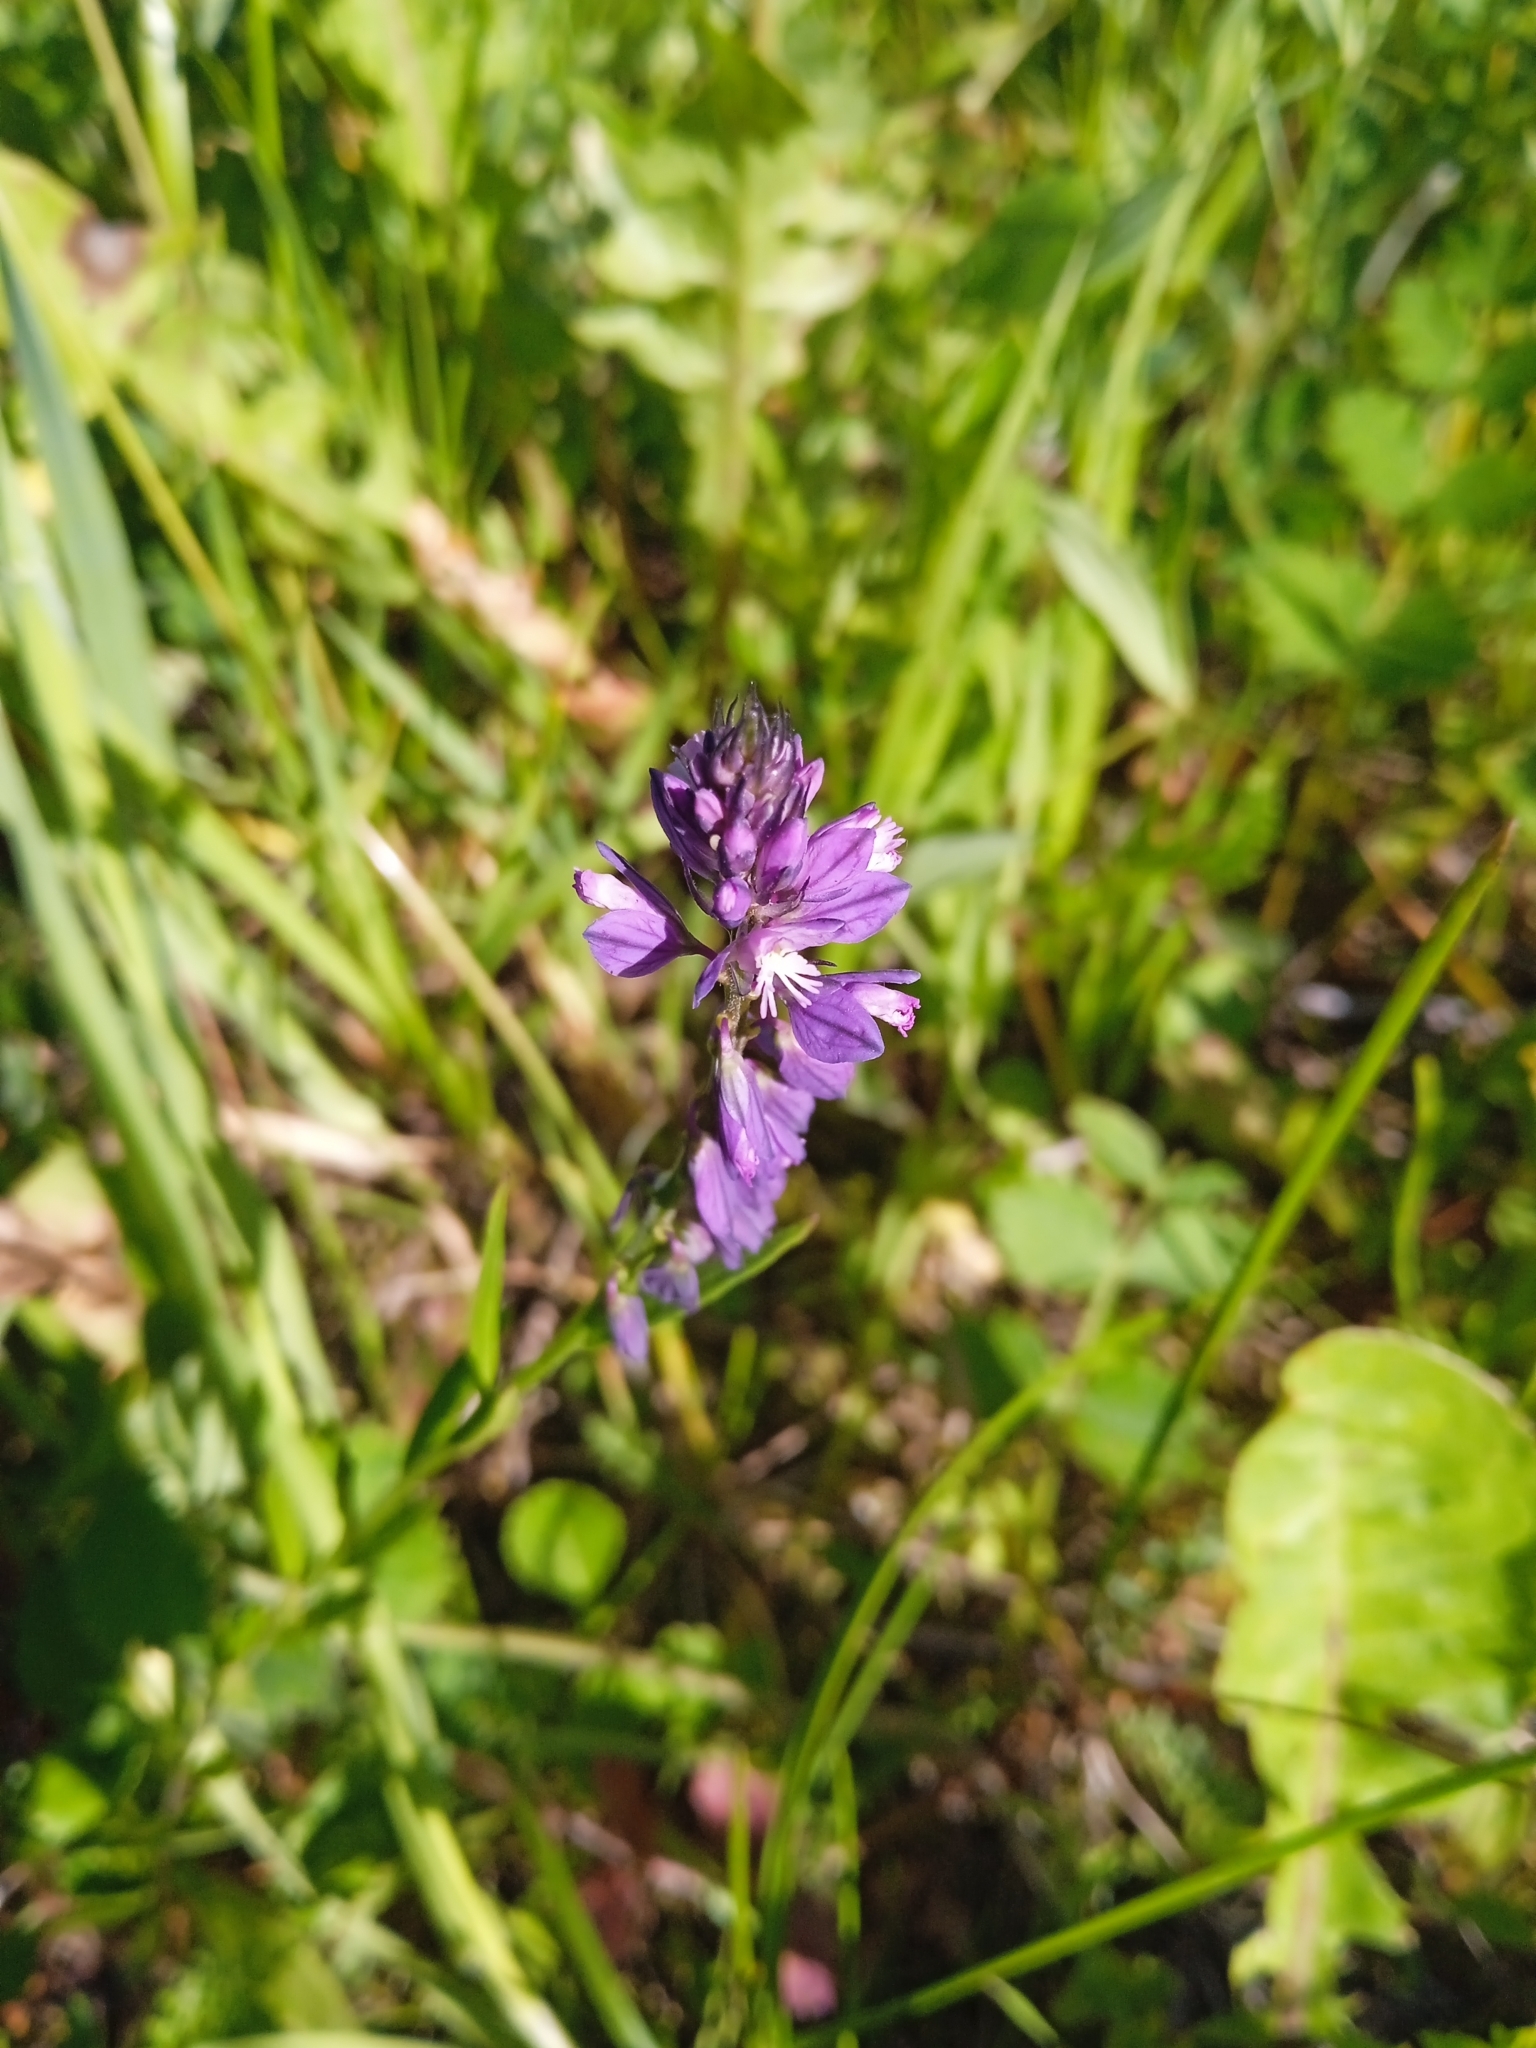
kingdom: Plantae
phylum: Tracheophyta
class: Magnoliopsida
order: Fabales
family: Polygalaceae
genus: Polygala
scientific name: Polygala comosa
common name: Tufted milkwort
